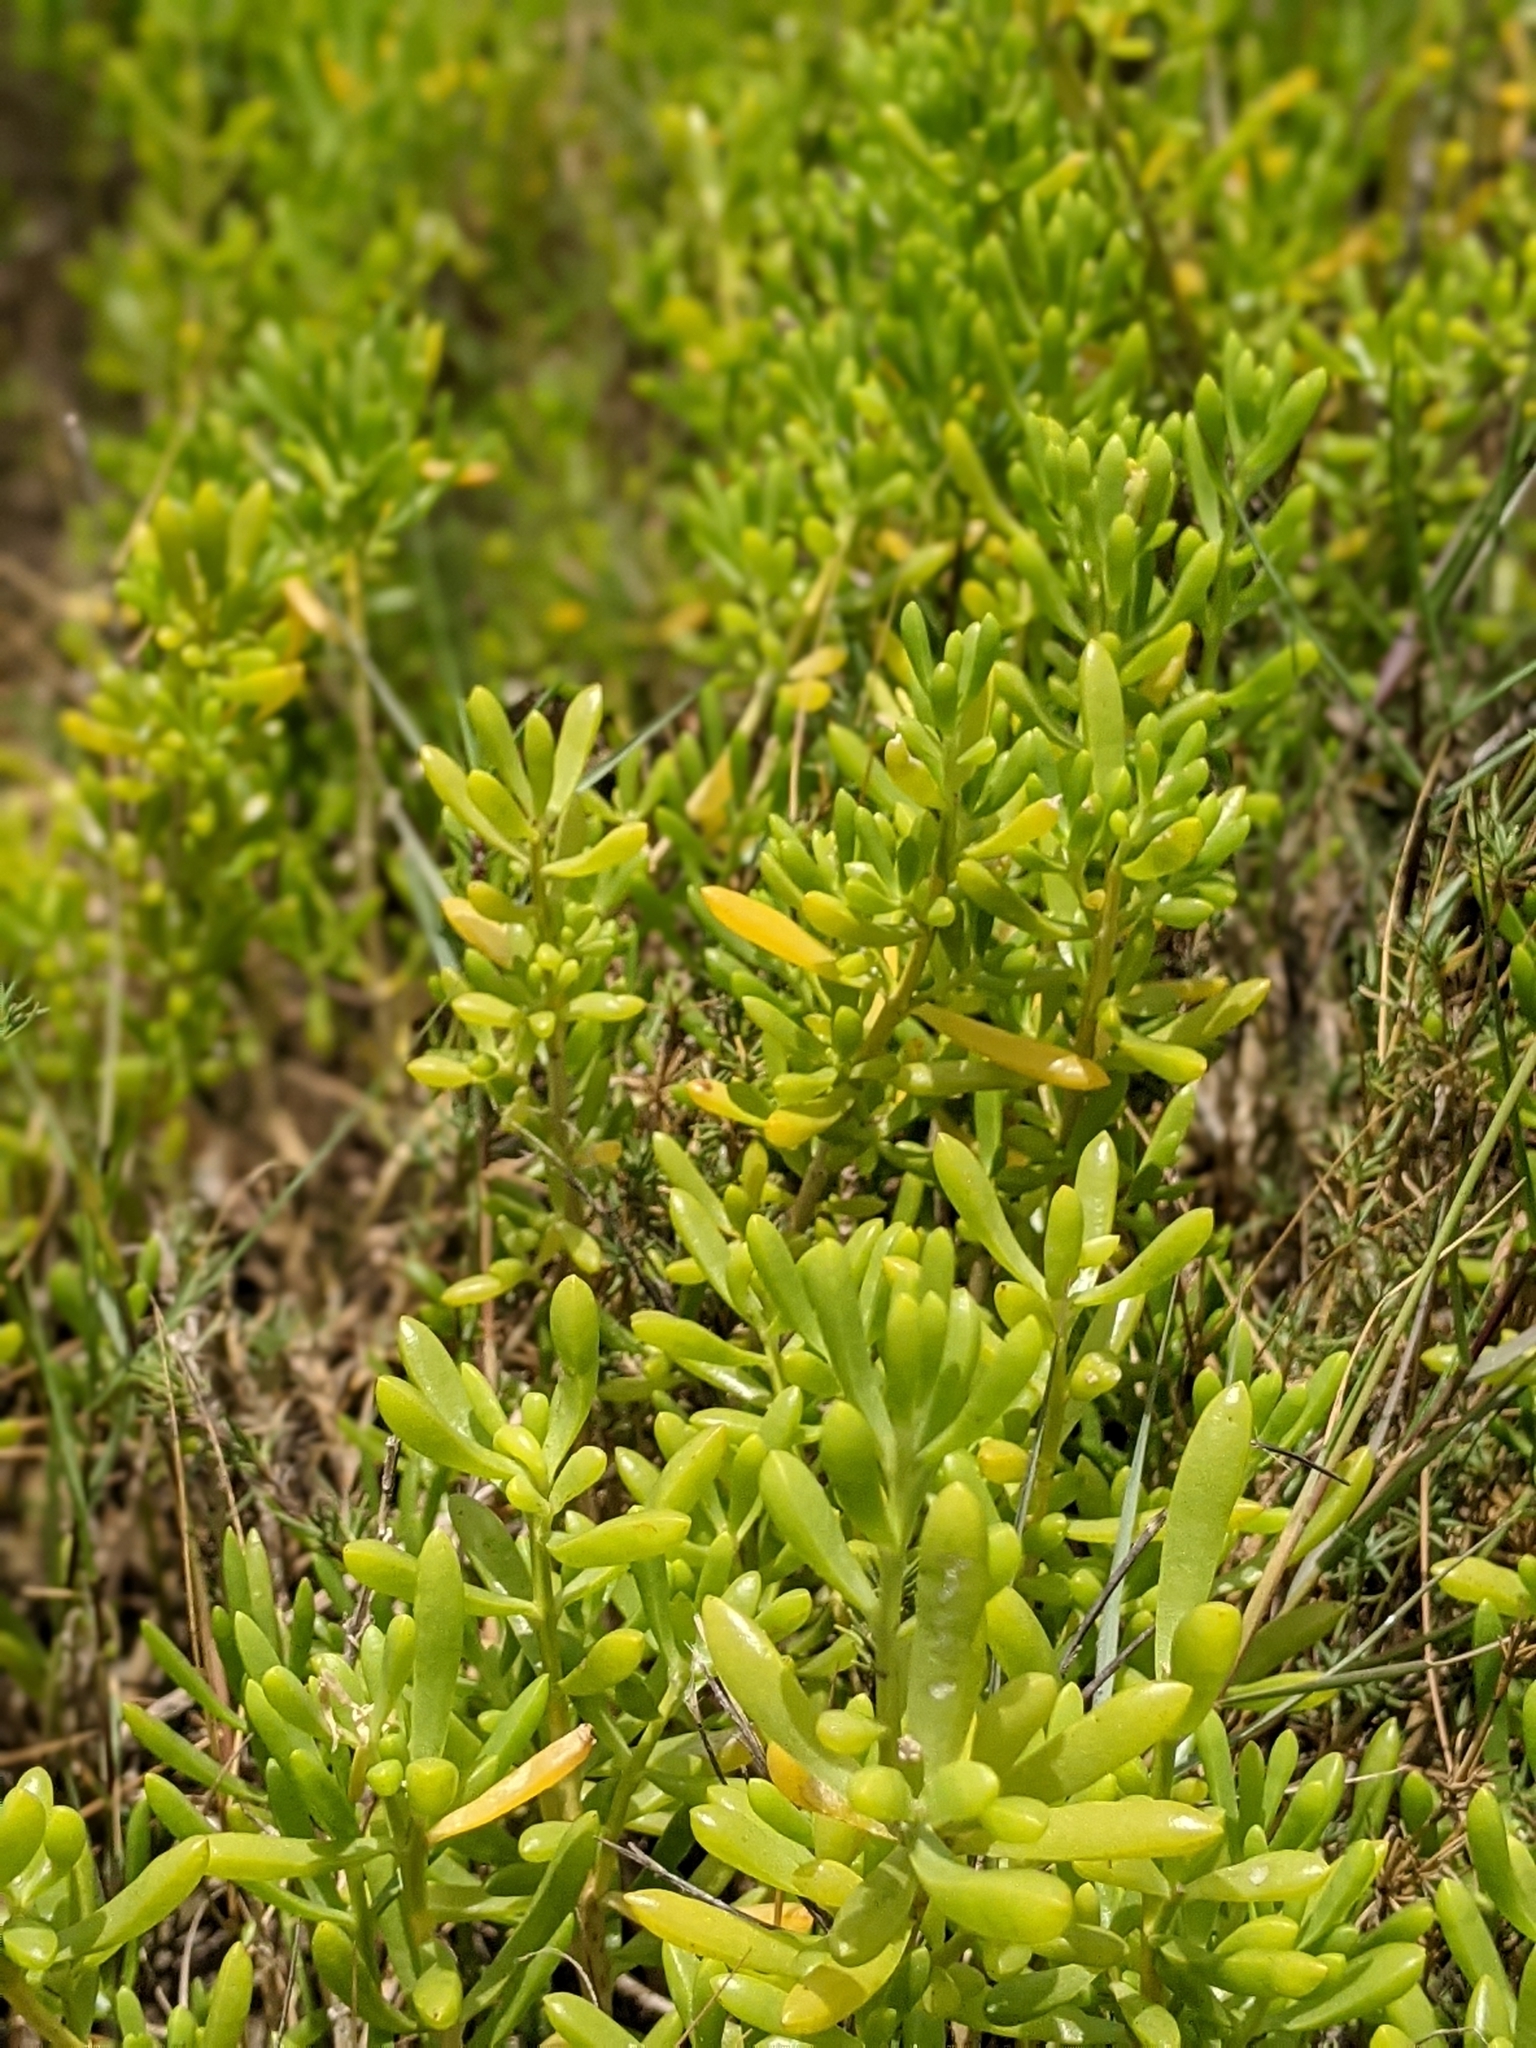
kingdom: Plantae
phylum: Tracheophyta
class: Magnoliopsida
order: Brassicales
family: Bataceae
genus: Batis
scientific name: Batis maritima
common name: Turtleweed
